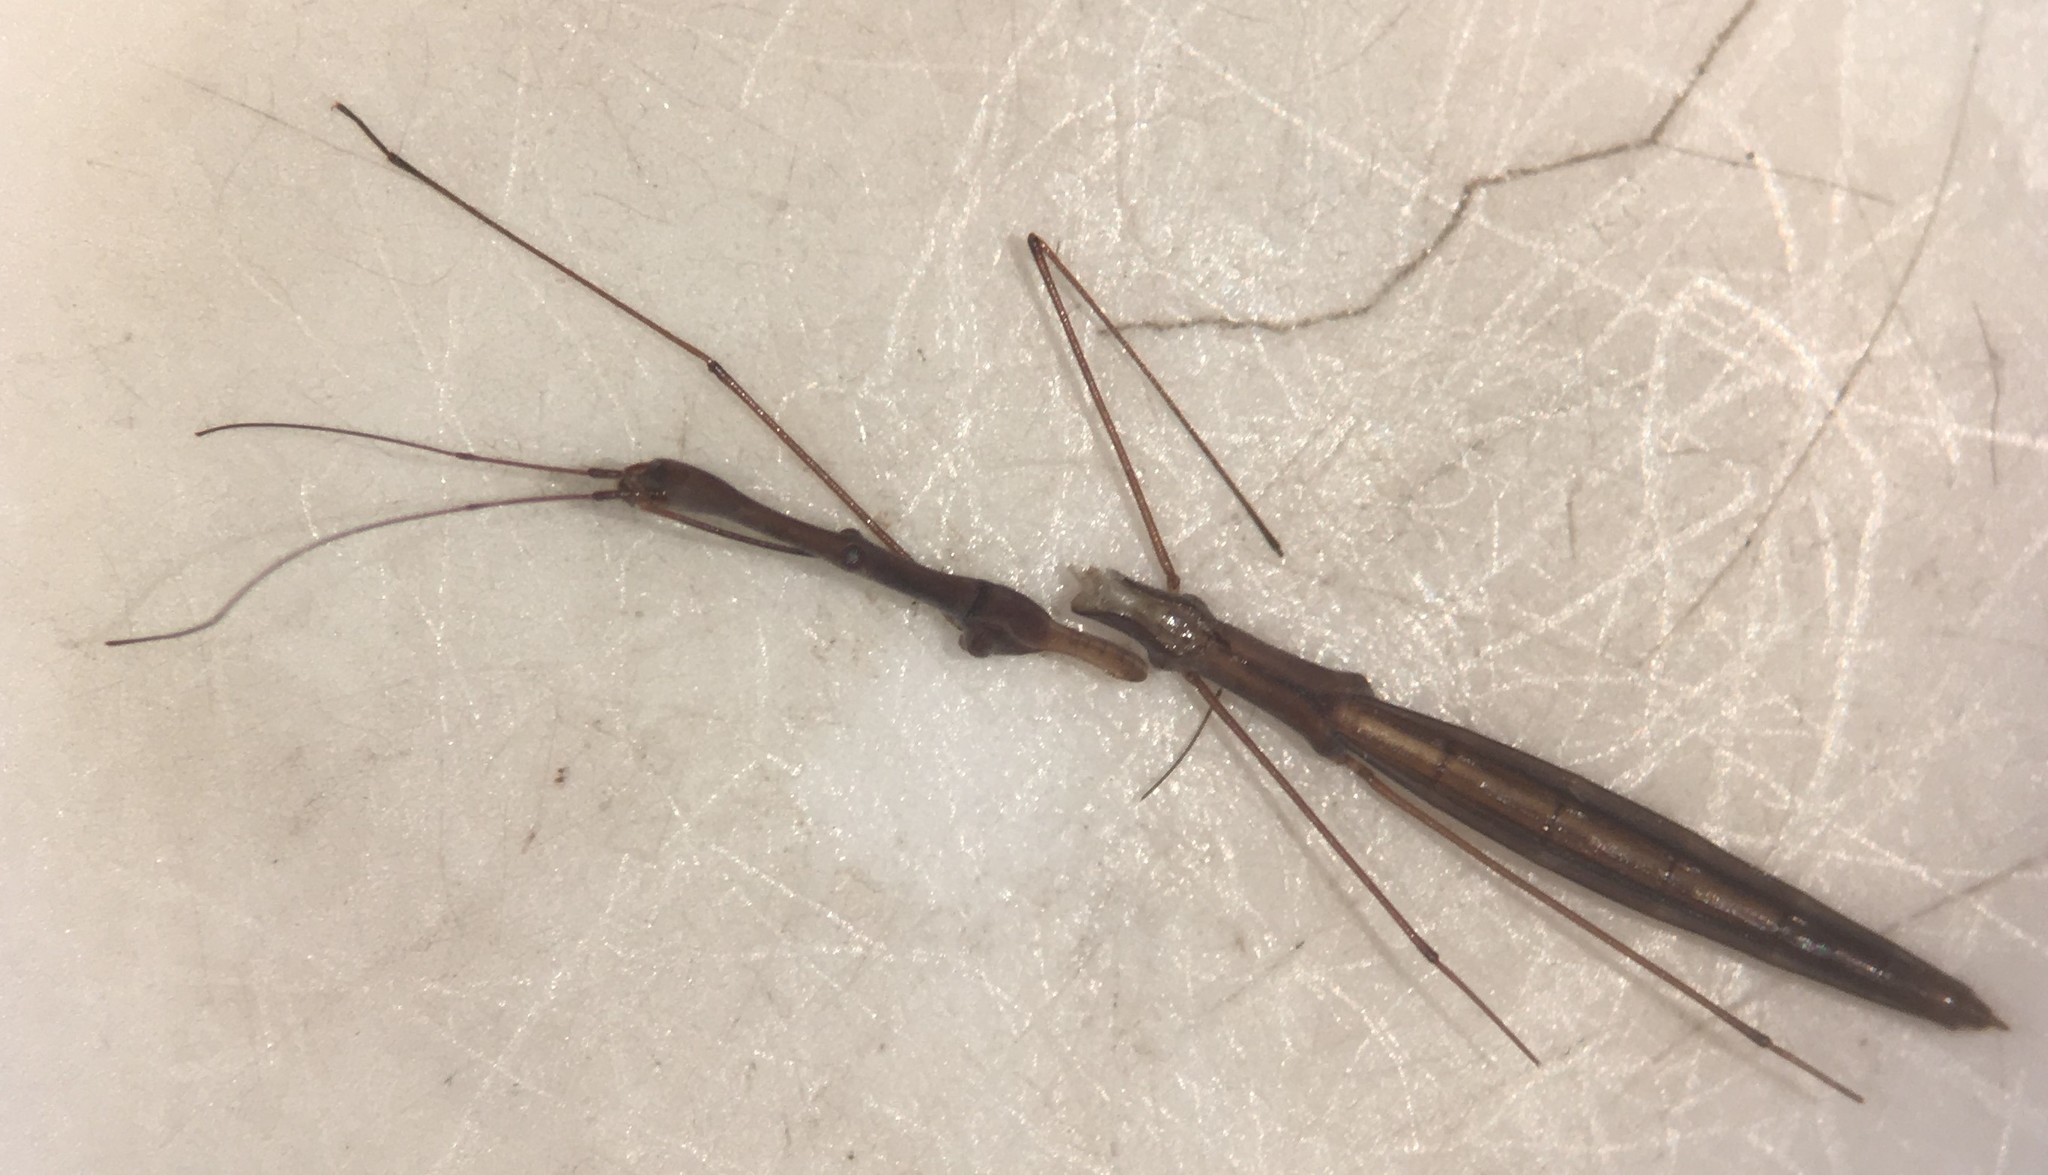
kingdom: Animalia
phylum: Arthropoda
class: Insecta
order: Hemiptera
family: Hydrometridae
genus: Hydrometra
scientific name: Hydrometra martini
